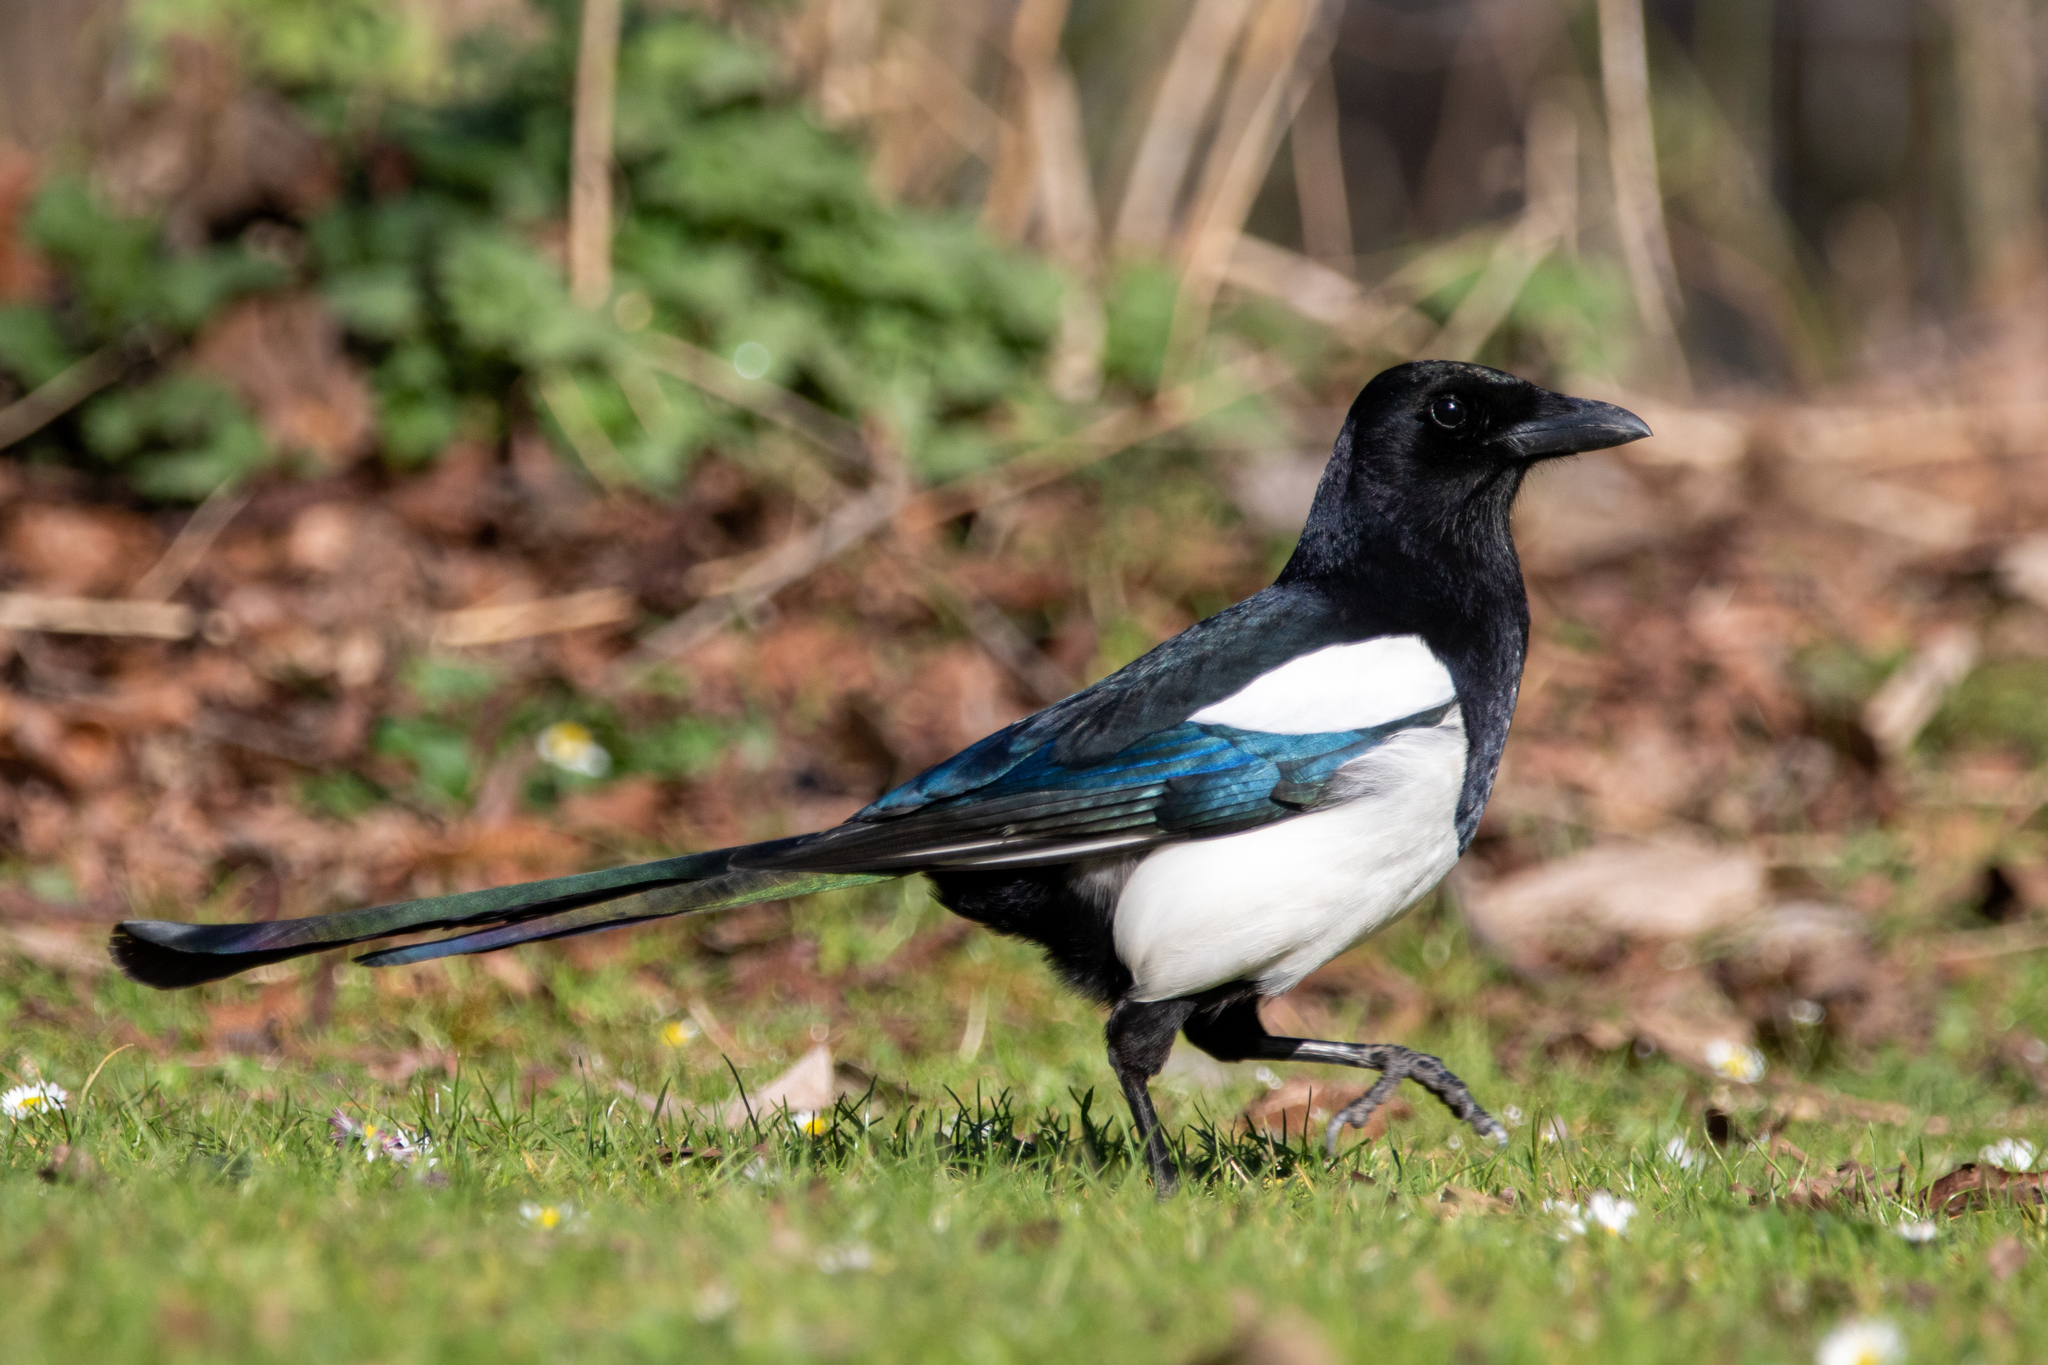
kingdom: Animalia
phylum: Chordata
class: Aves
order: Passeriformes
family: Corvidae
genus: Pica
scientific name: Pica pica
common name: Eurasian magpie
